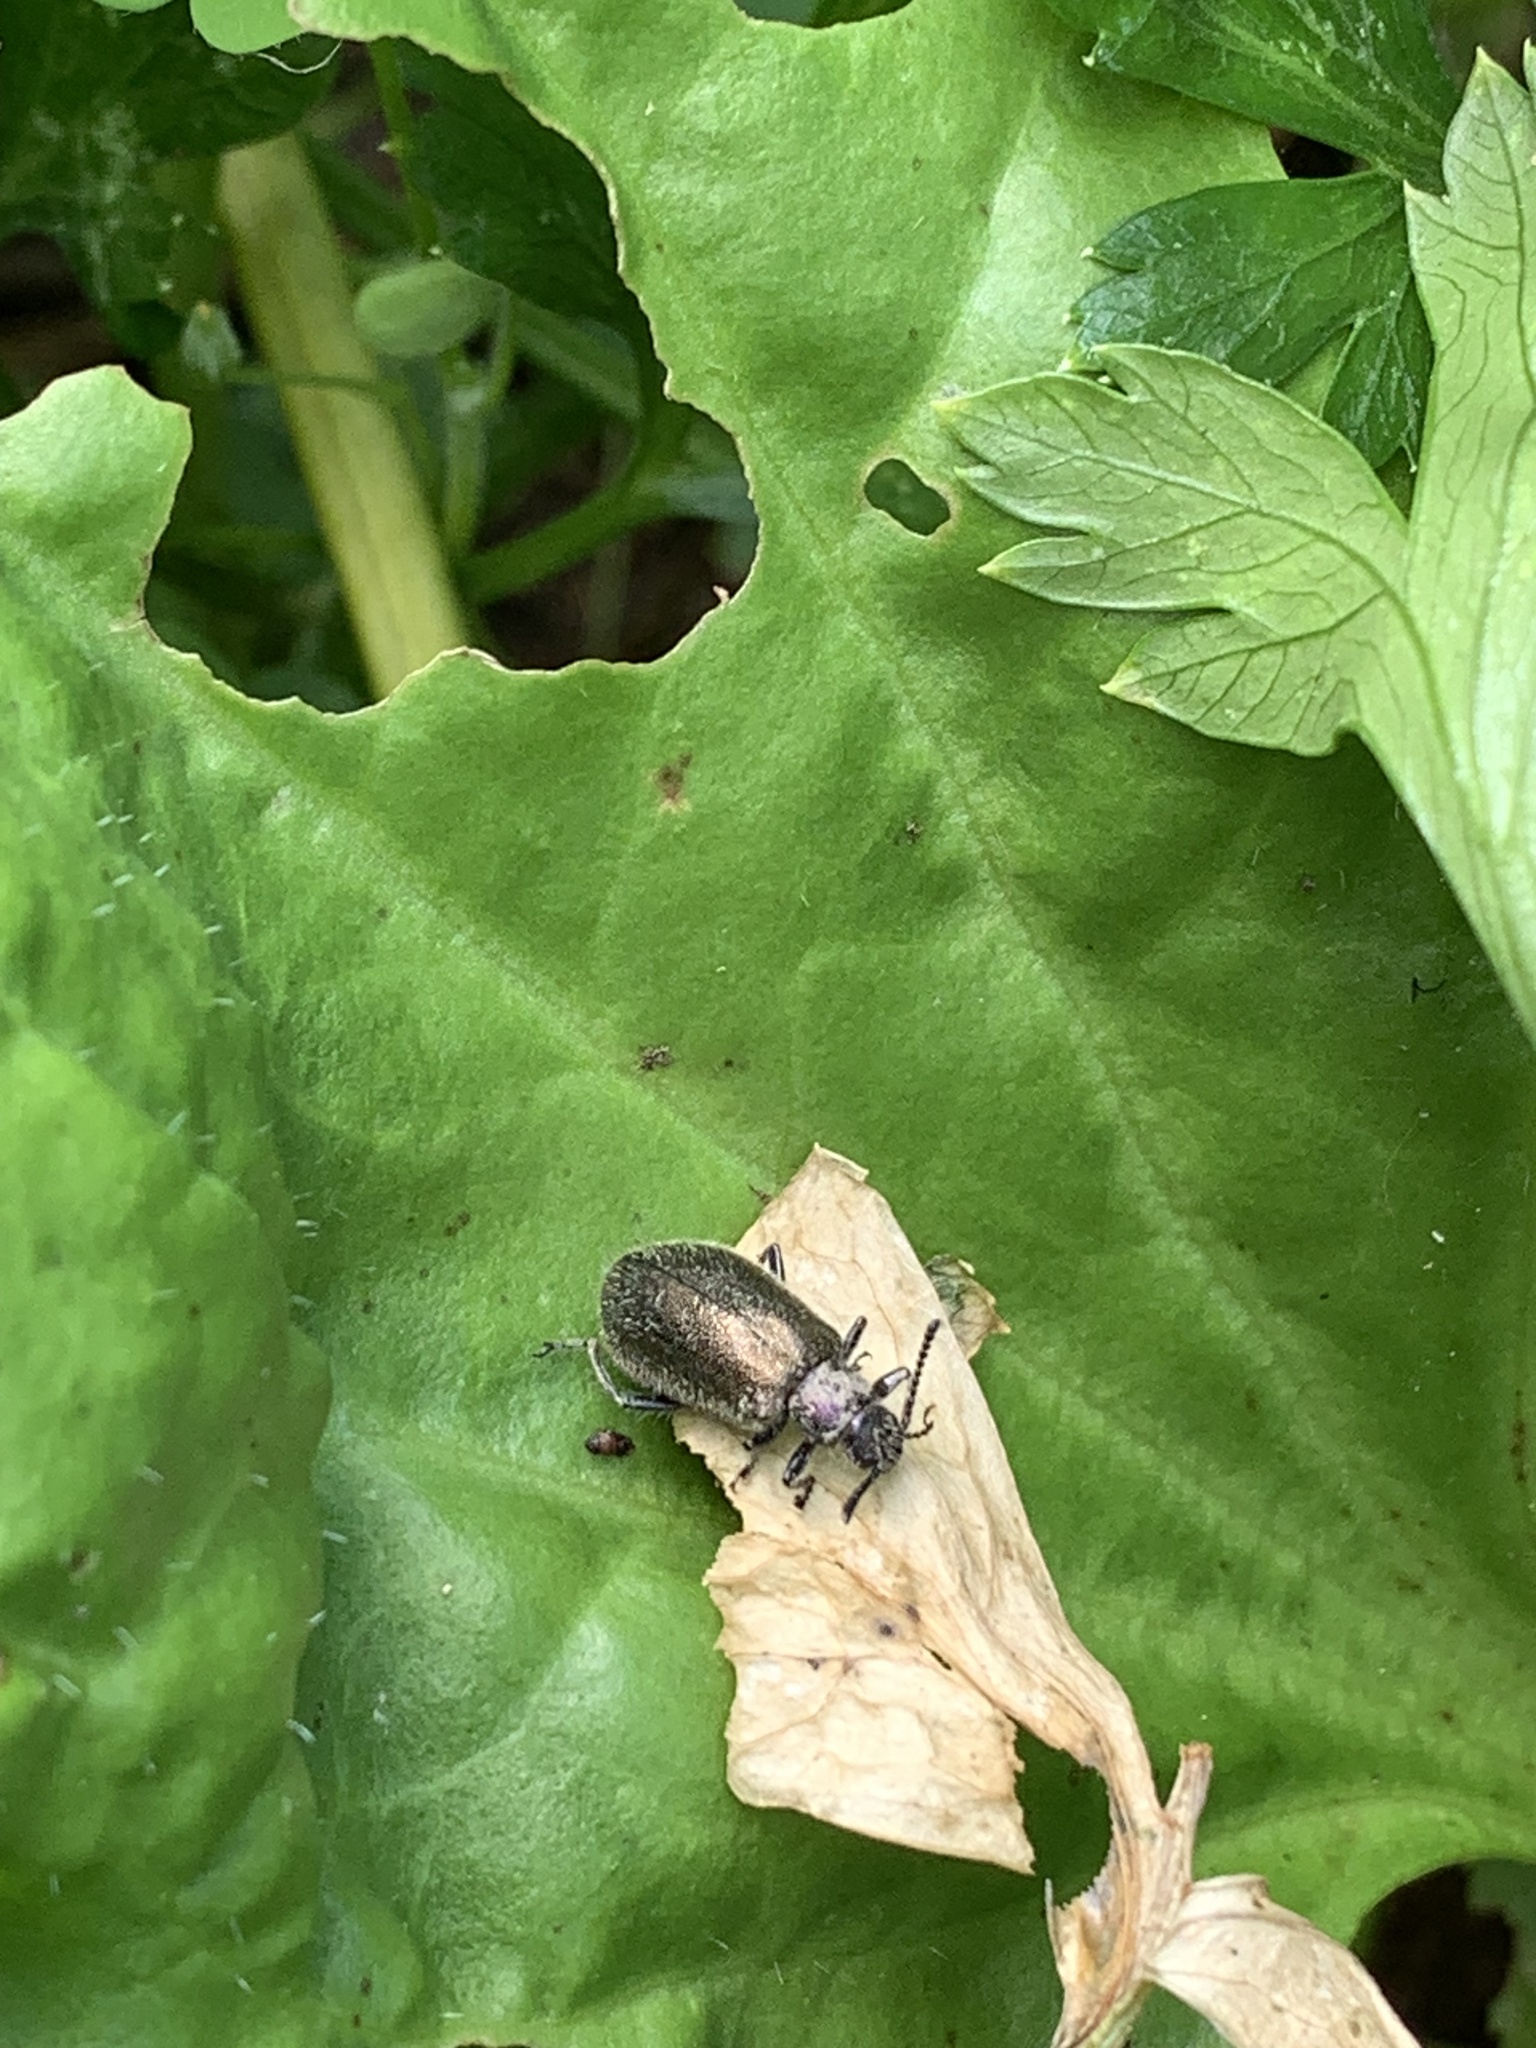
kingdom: Animalia
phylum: Arthropoda
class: Insecta
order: Coleoptera
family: Tenebrionidae
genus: Lagria
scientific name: Lagria villosa
